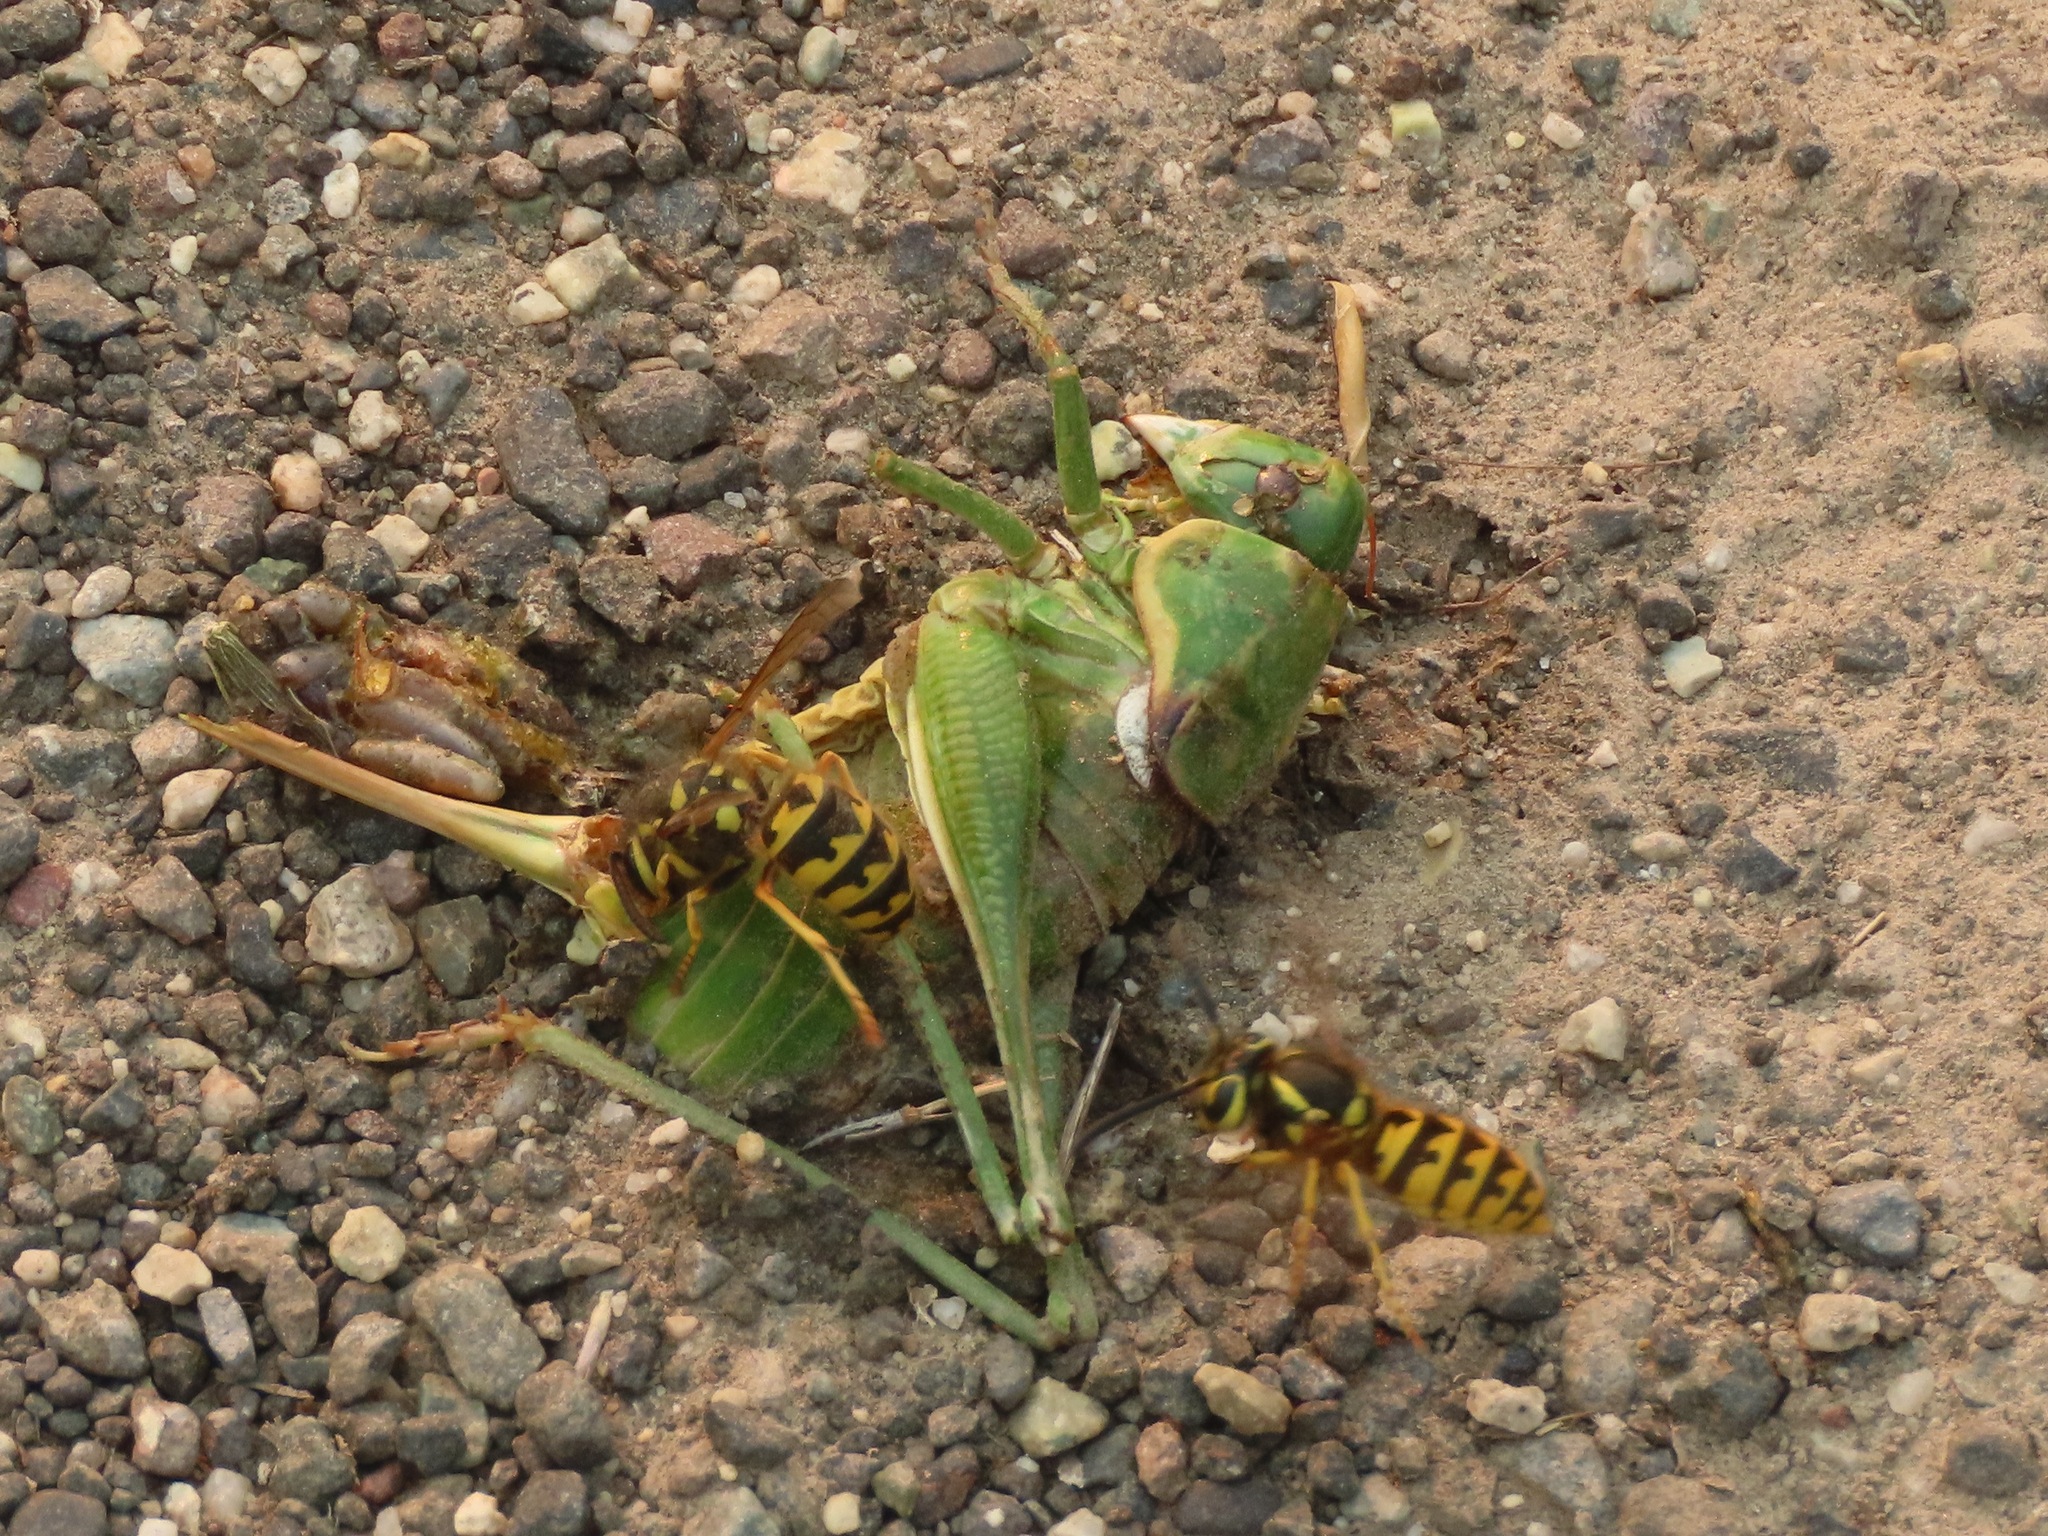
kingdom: Animalia
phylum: Arthropoda
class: Insecta
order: Orthoptera
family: Tettigoniidae
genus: Anabrus
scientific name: Anabrus longipes
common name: Long-legged anabrus
